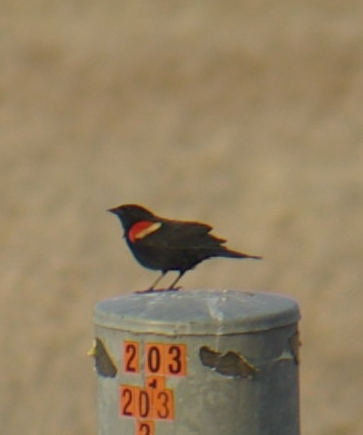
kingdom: Animalia
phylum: Chordata
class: Aves
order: Passeriformes
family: Icteridae
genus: Agelaius
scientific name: Agelaius phoeniceus
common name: Red-winged blackbird
